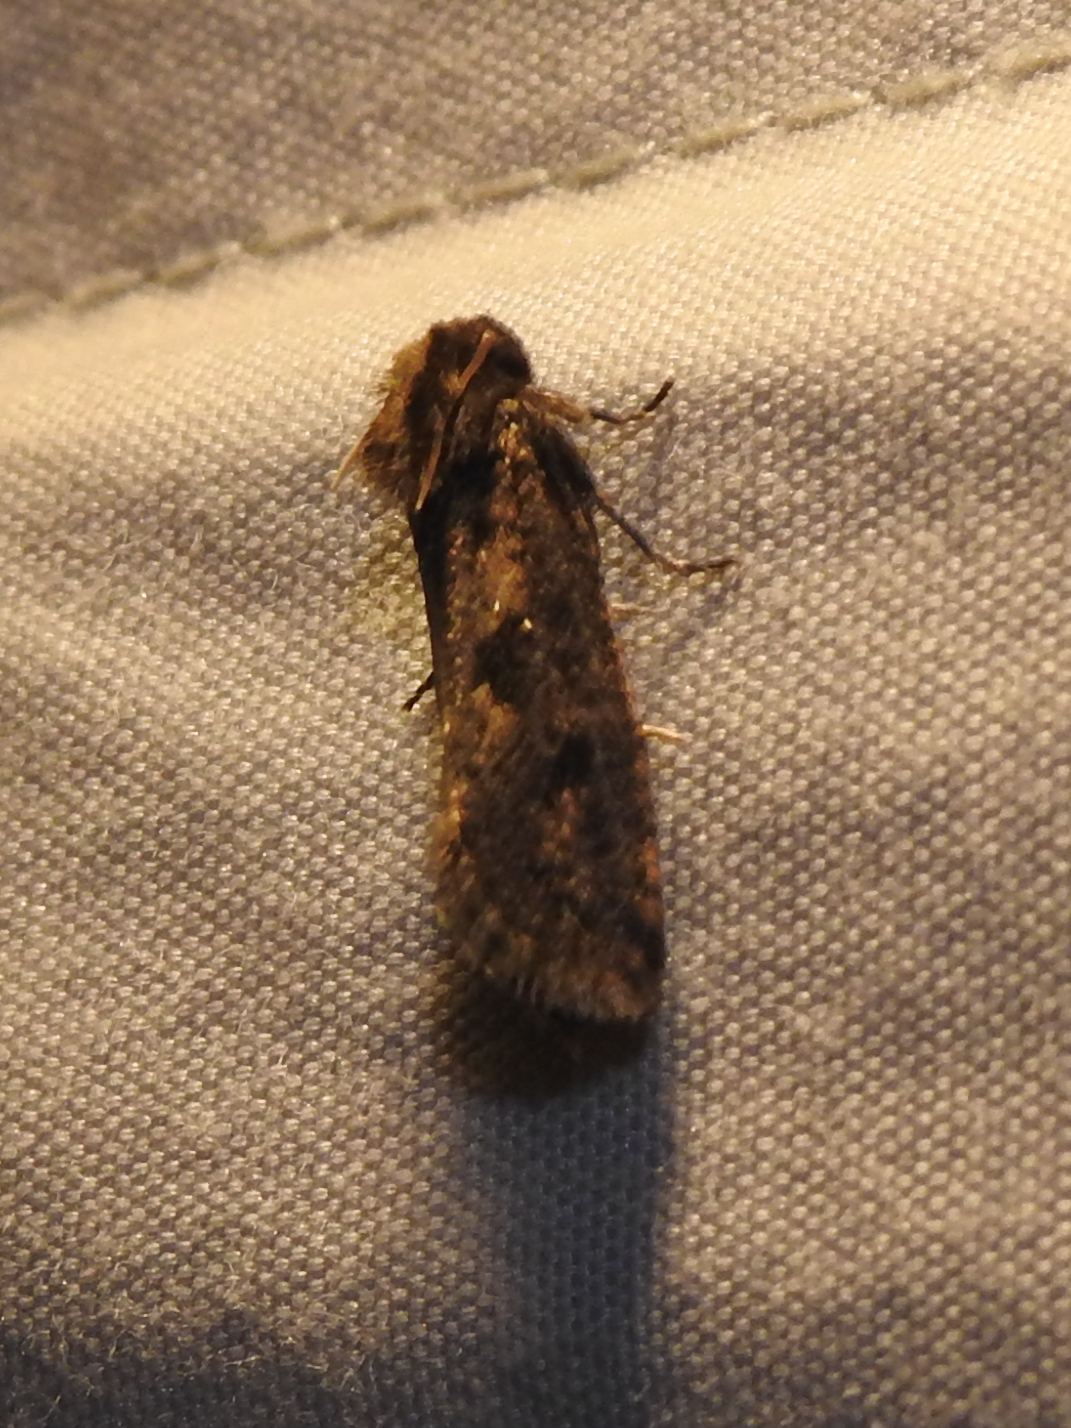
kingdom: Animalia
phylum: Arthropoda
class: Insecta
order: Lepidoptera
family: Tineidae
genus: Acrolophus
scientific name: Acrolophus popeanella
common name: Clemens' grass tubeworm moth
